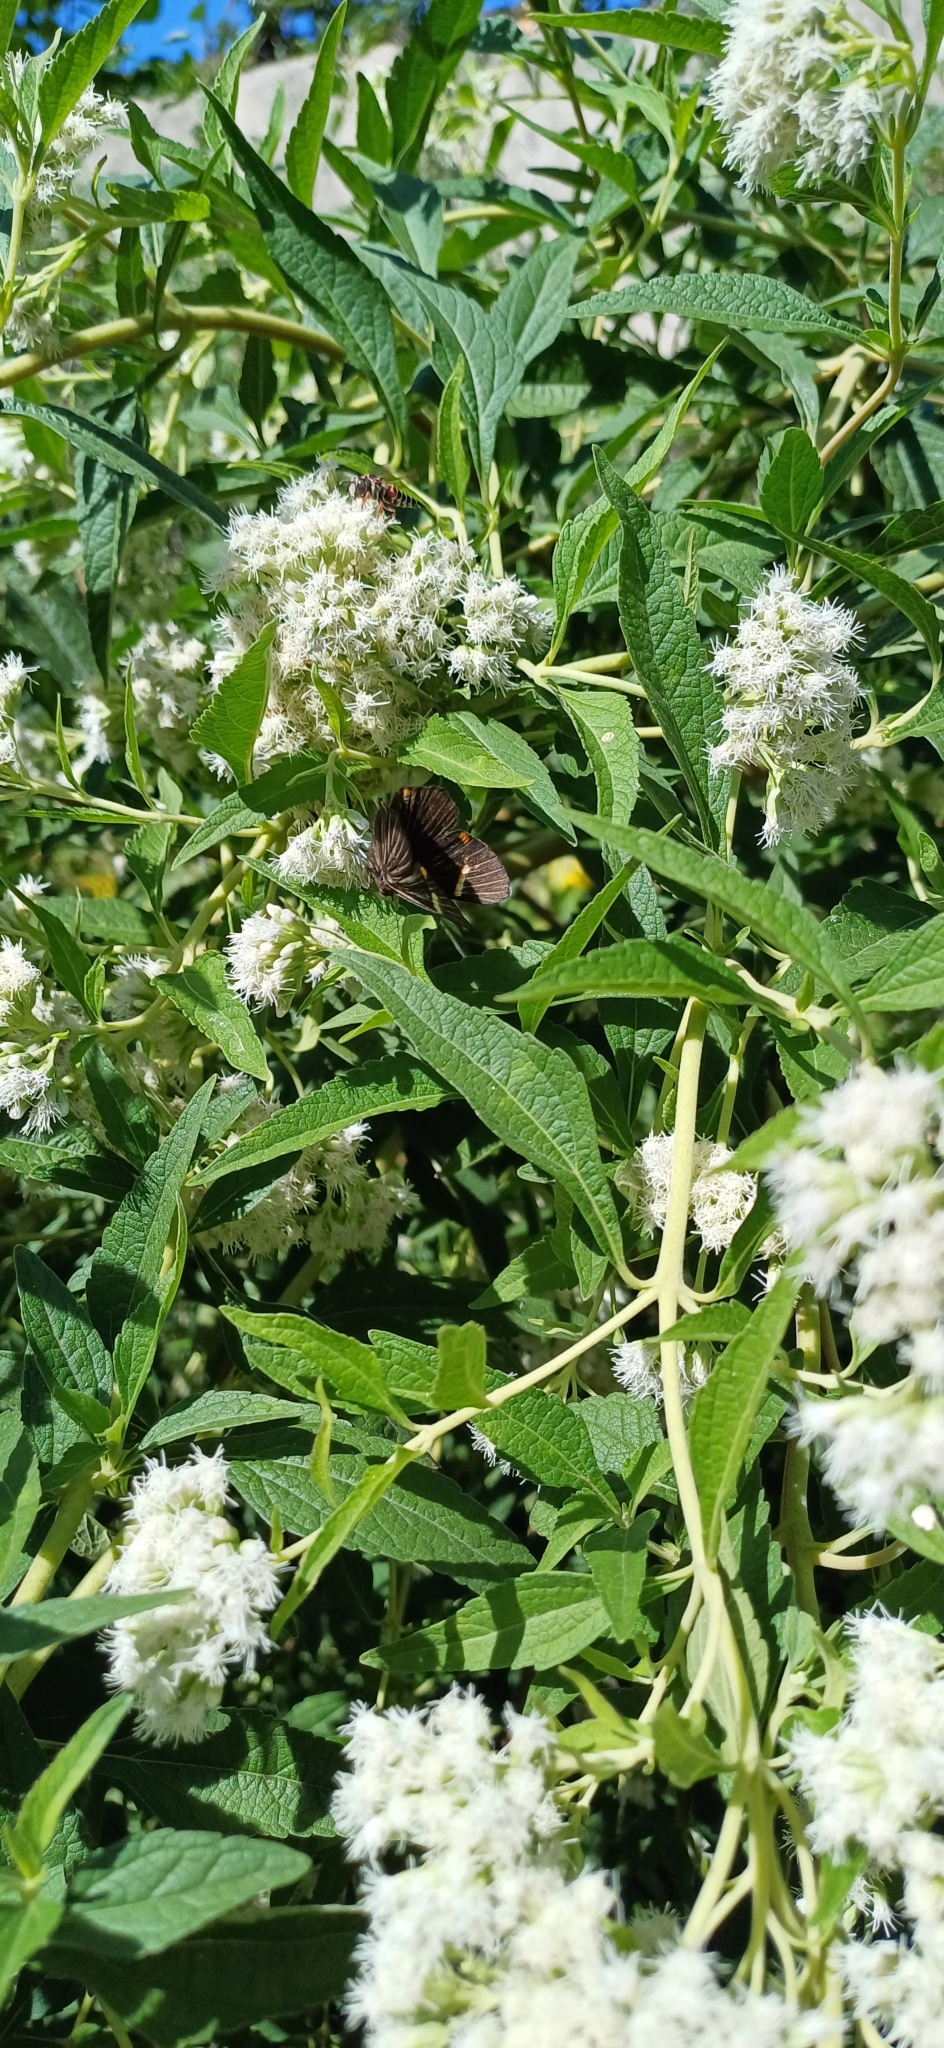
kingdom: Animalia
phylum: Arthropoda
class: Insecta
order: Lepidoptera
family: Riodinidae
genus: Riodina
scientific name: Riodina lycisca
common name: Lycisca metalmark
